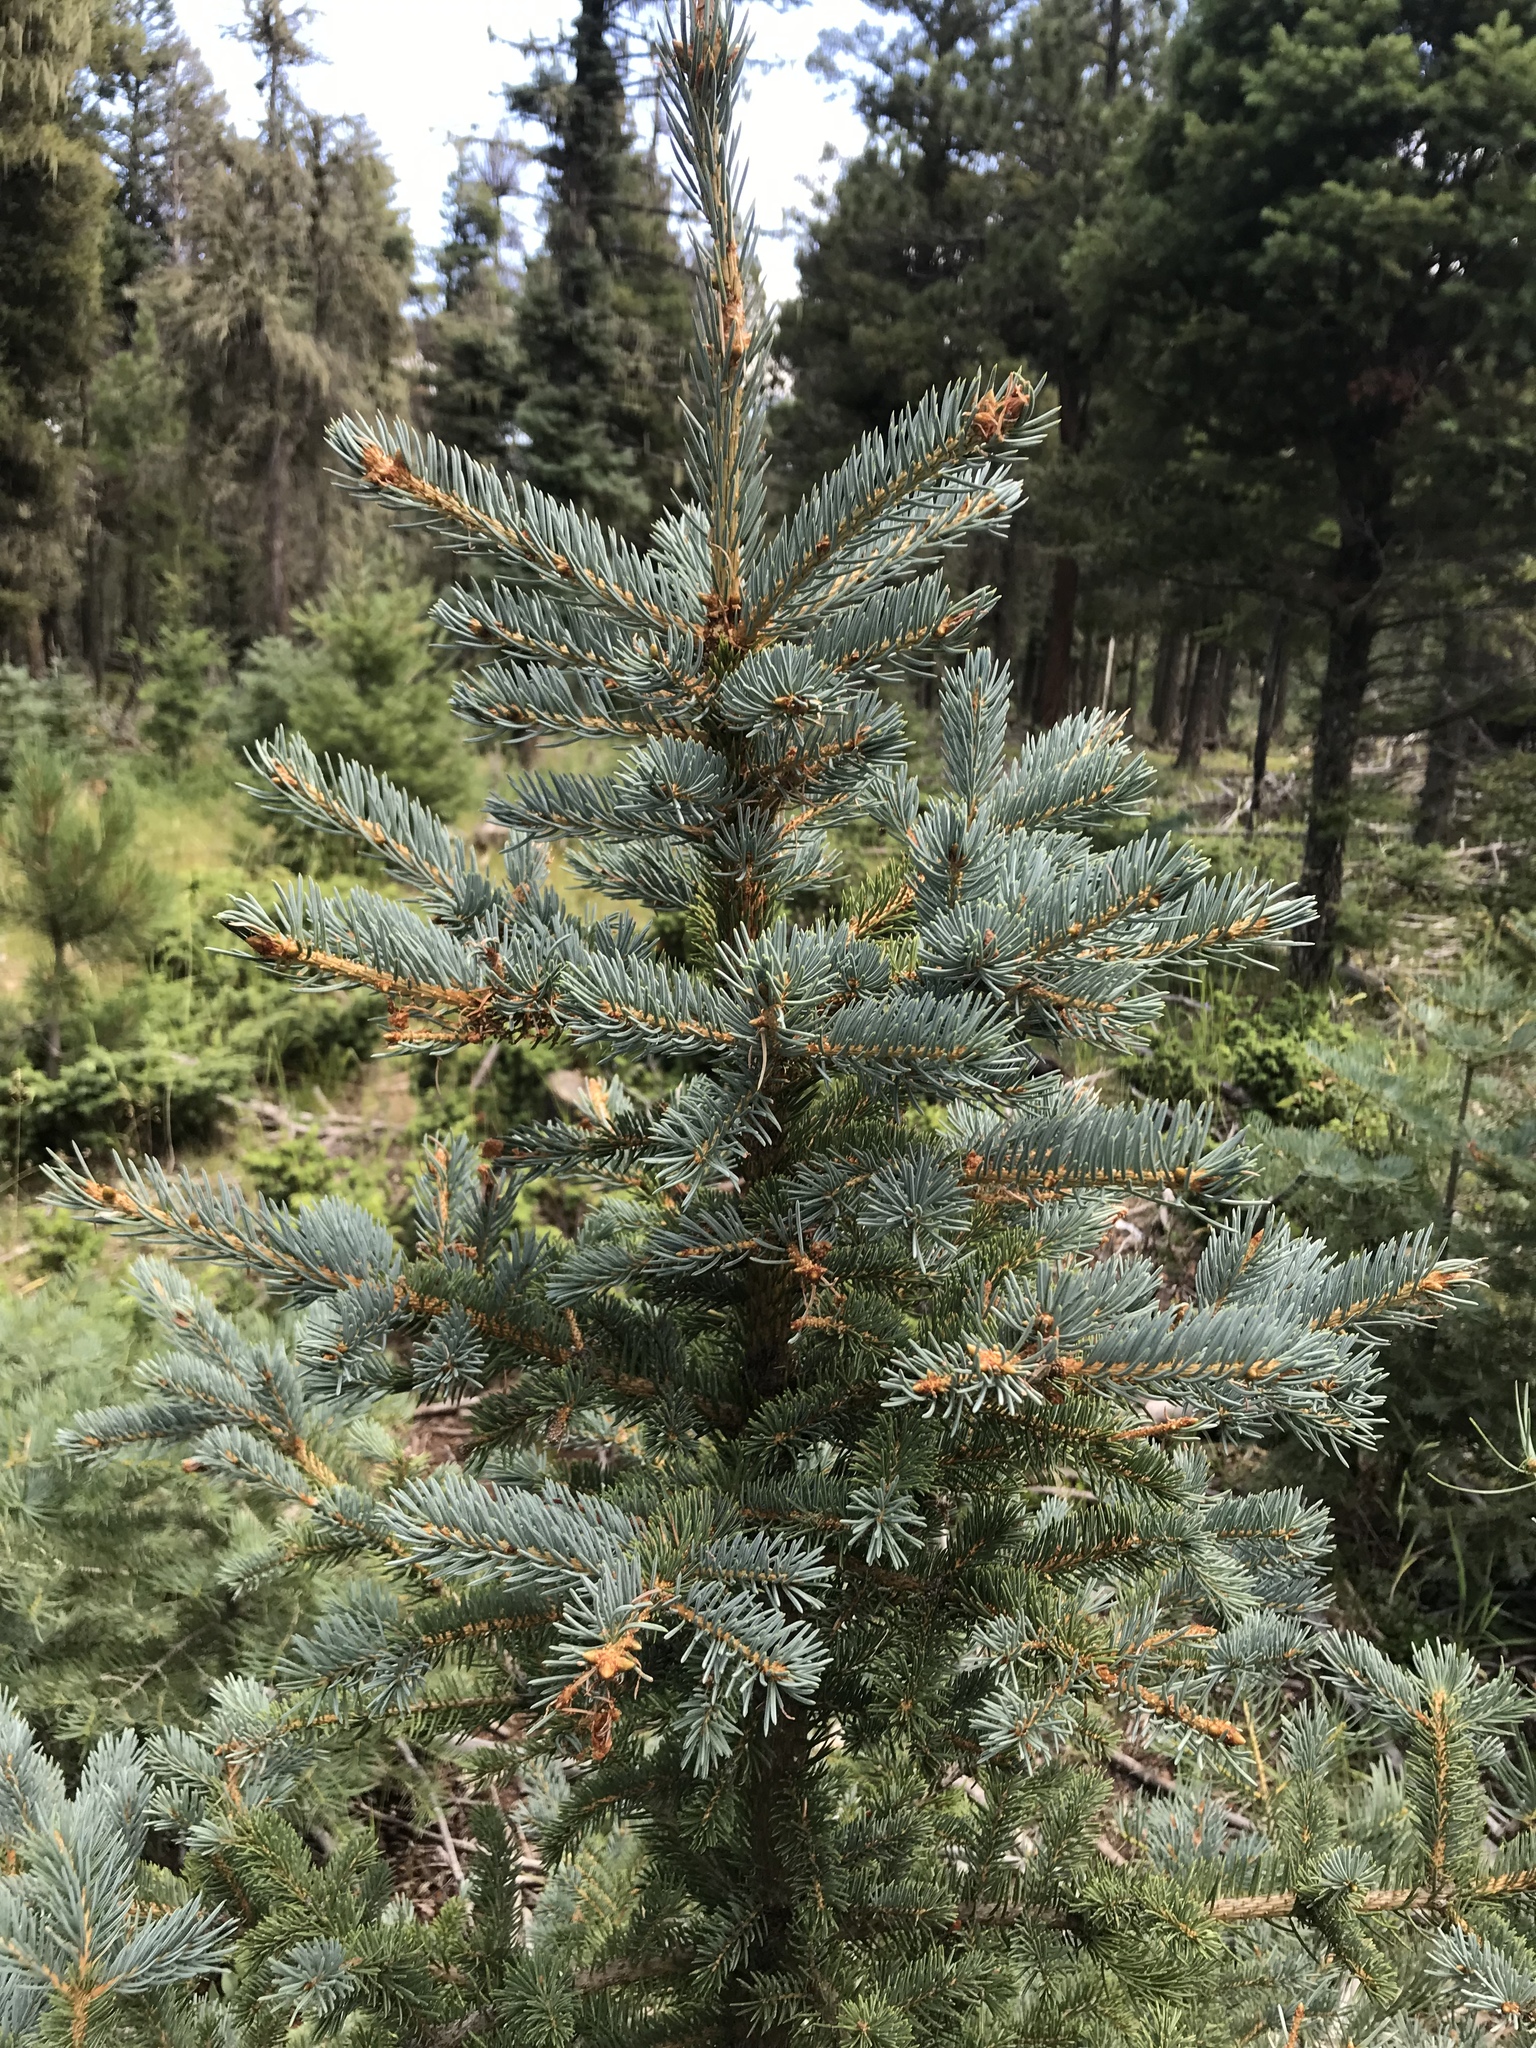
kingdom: Plantae
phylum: Tracheophyta
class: Pinopsida
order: Pinales
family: Pinaceae
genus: Picea
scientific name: Picea pungens
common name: Colorado spruce
